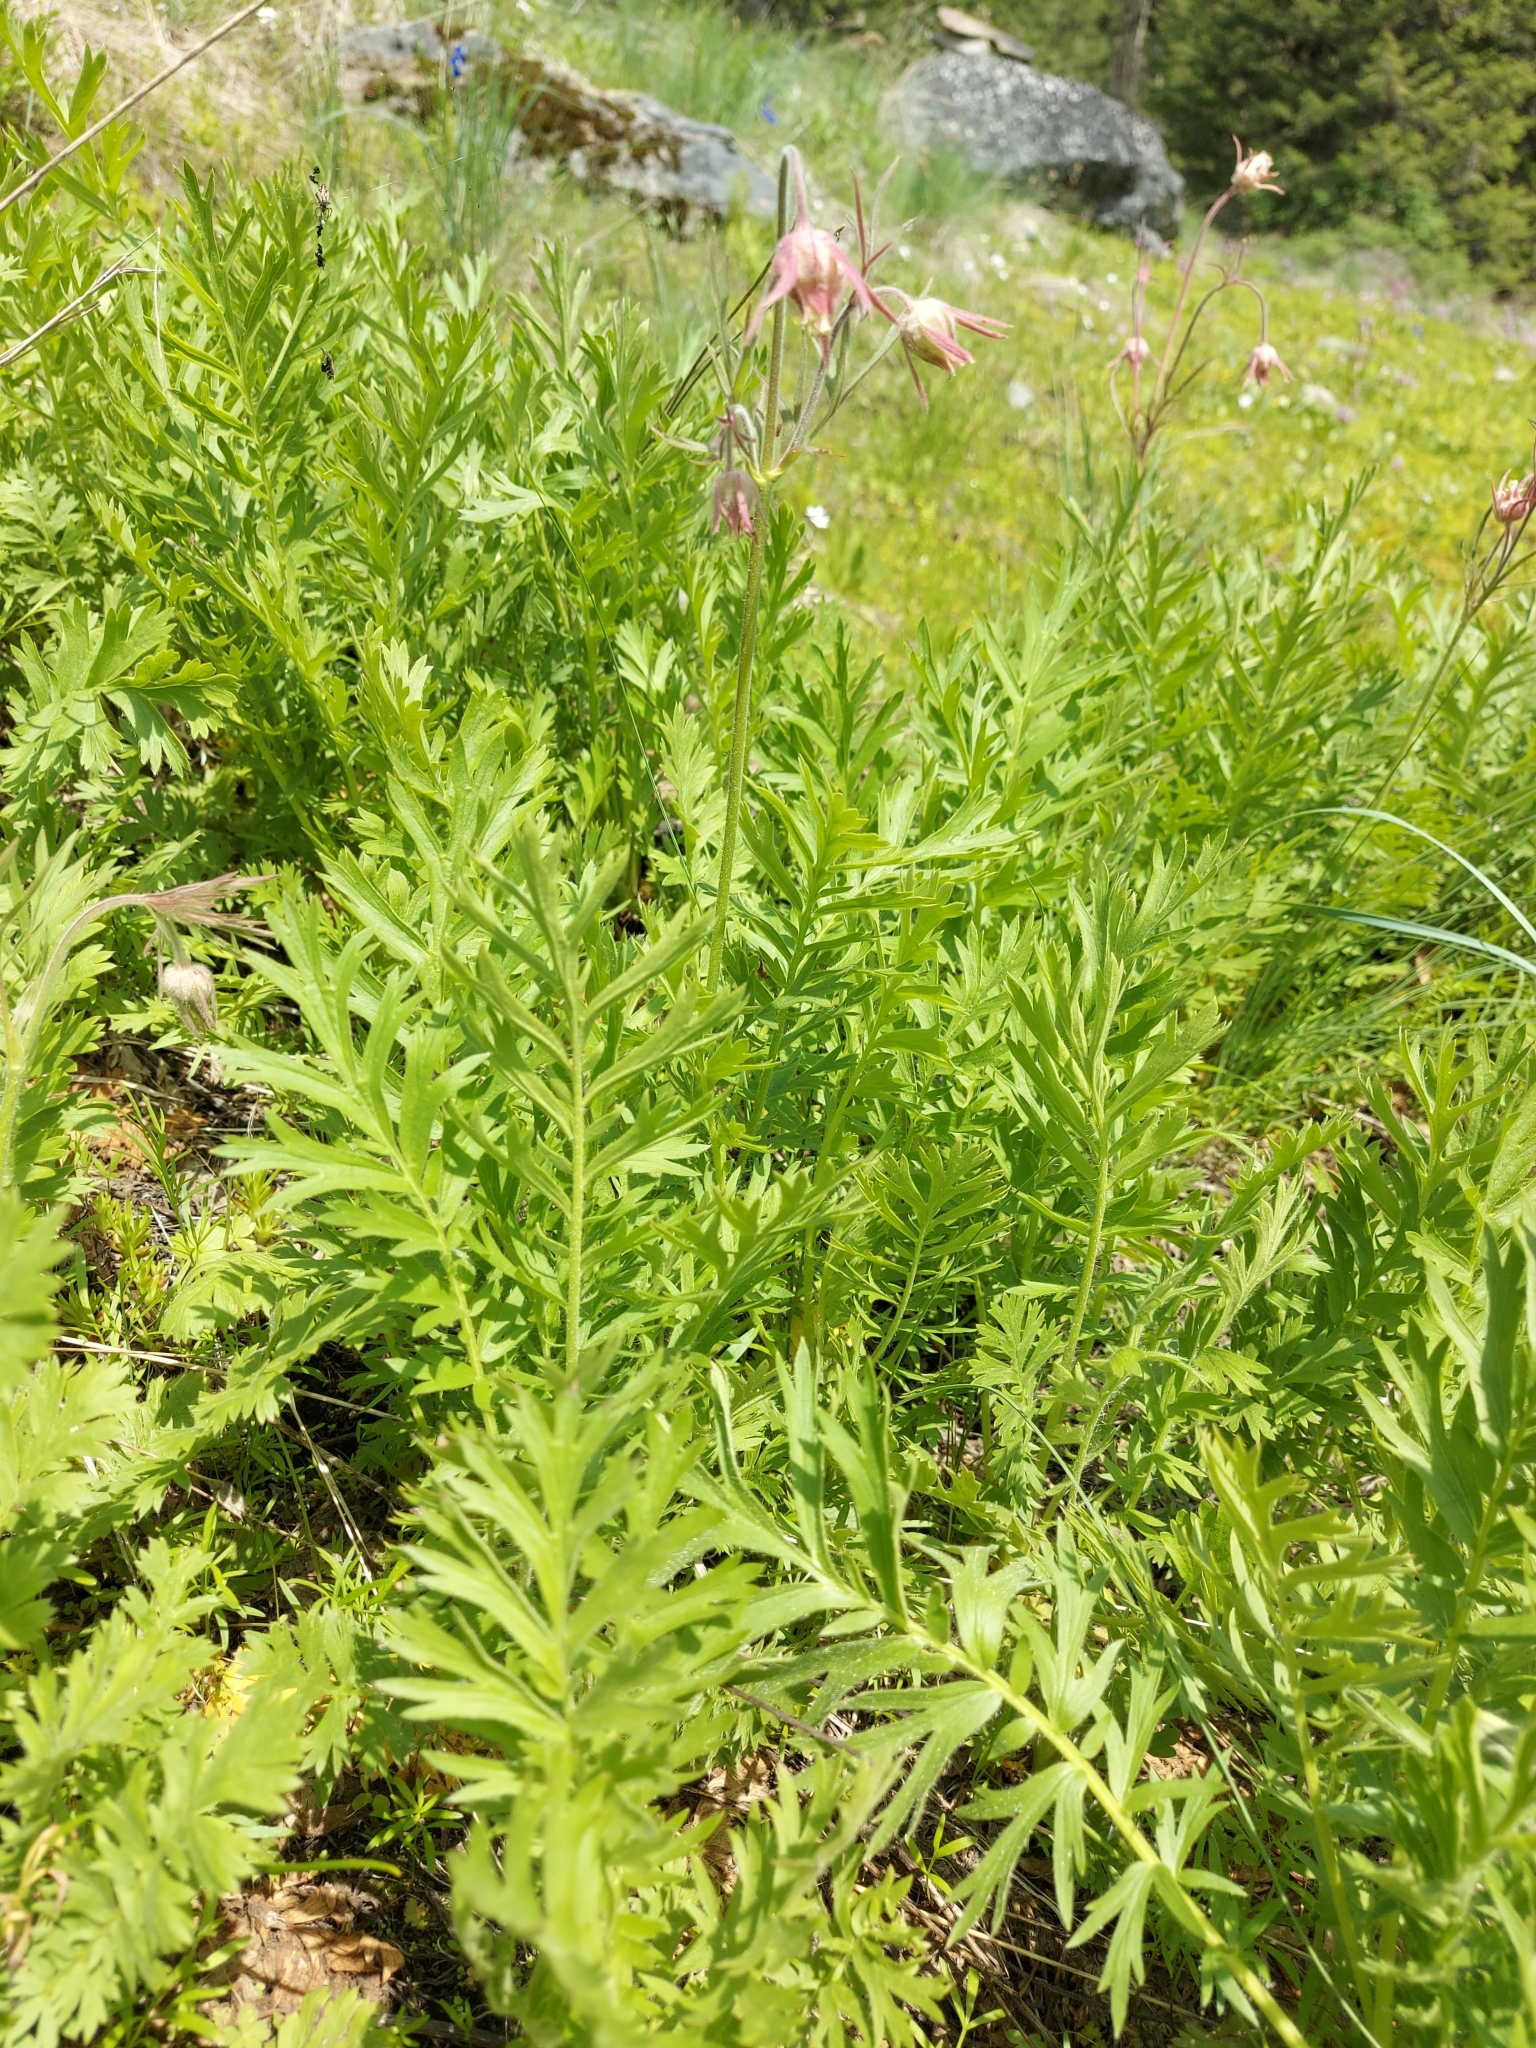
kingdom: Plantae
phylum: Tracheophyta
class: Magnoliopsida
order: Rosales
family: Rosaceae
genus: Geum
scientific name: Geum triflorum
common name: Old man's whiskers
